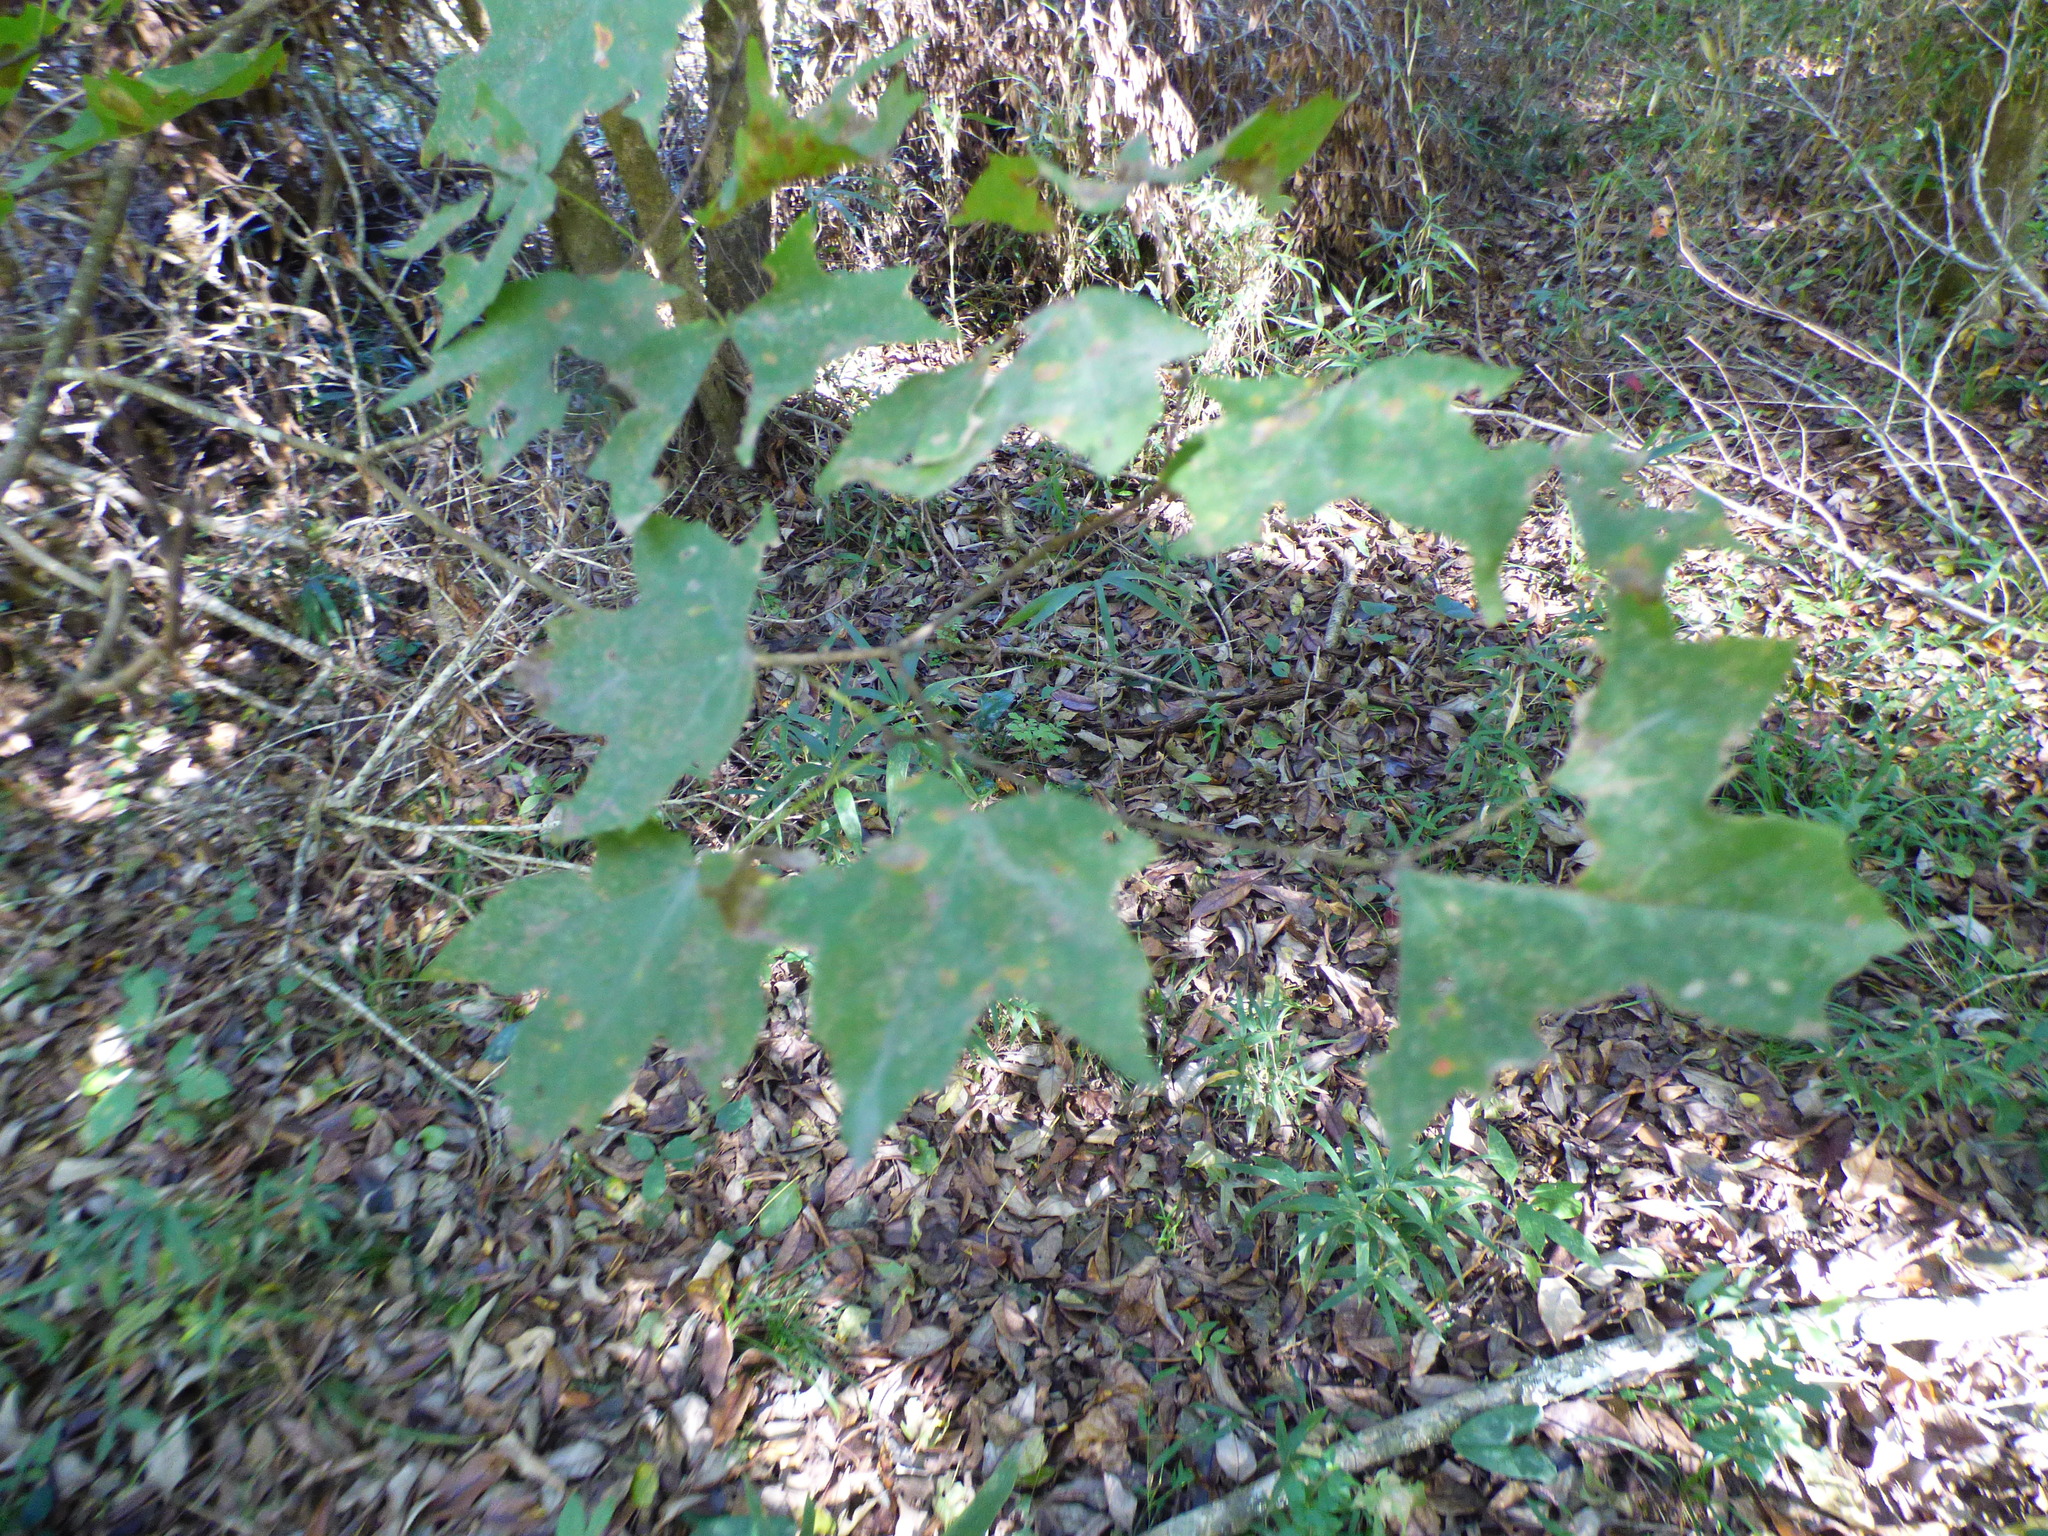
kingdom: Plantae
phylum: Tracheophyta
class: Magnoliopsida
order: Sapindales
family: Sapindaceae
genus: Acer
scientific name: Acer floridanum
